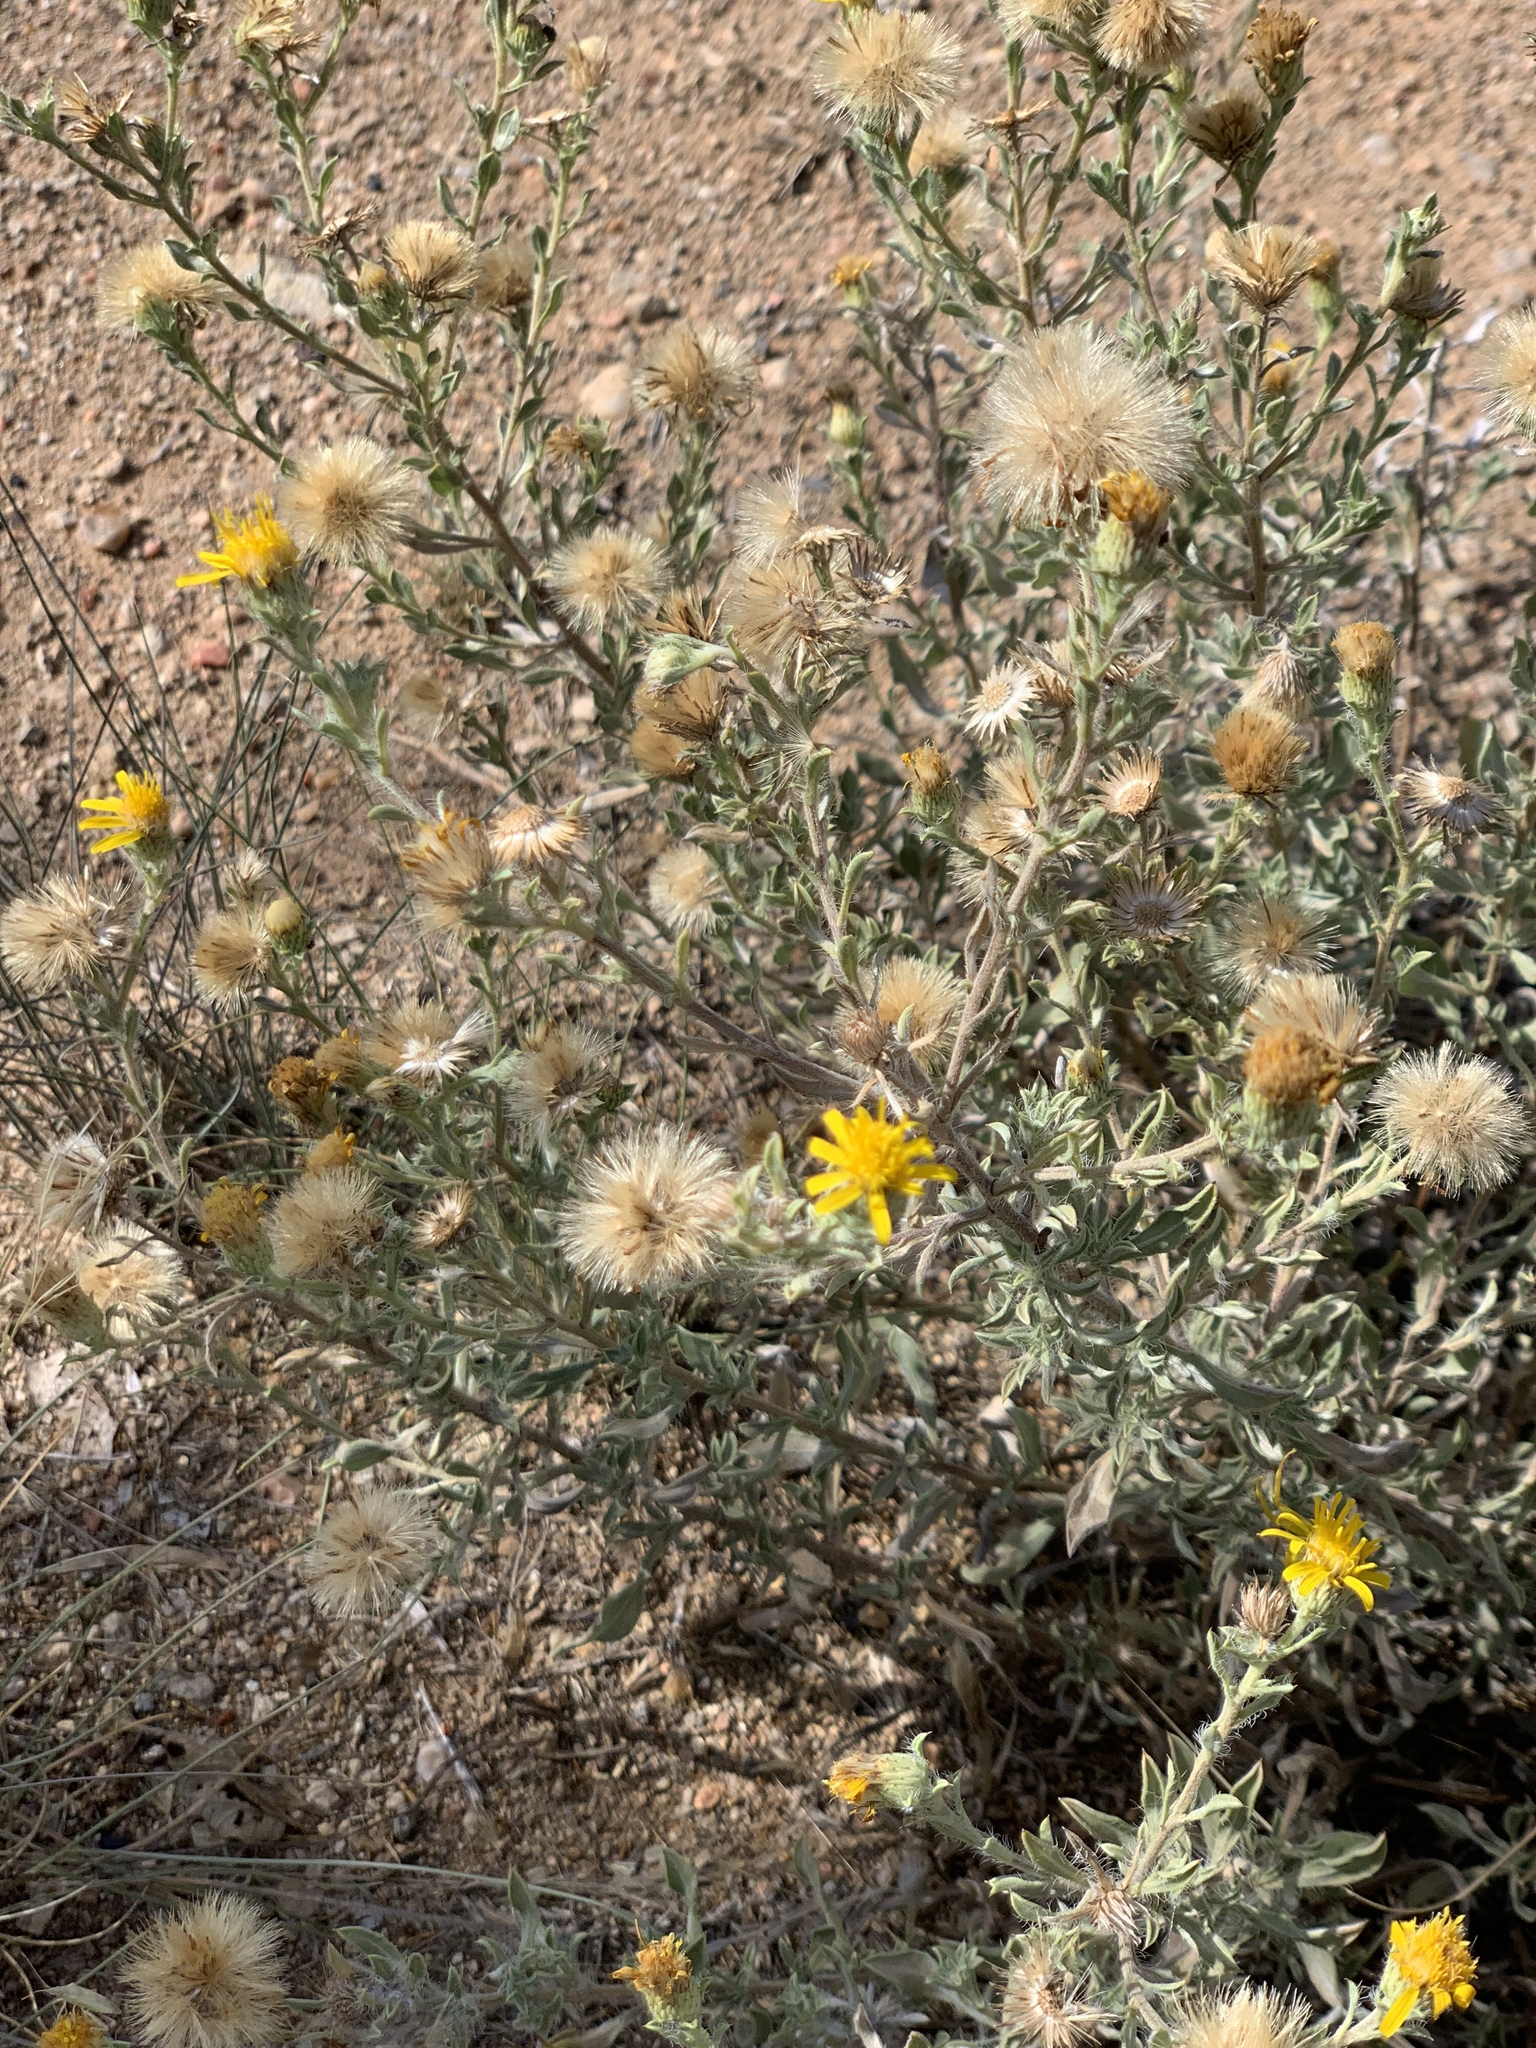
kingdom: Plantae
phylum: Tracheophyta
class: Magnoliopsida
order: Asterales
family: Asteraceae
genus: Heterotheca
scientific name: Heterotheca canescens
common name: Hoary golden-aster
